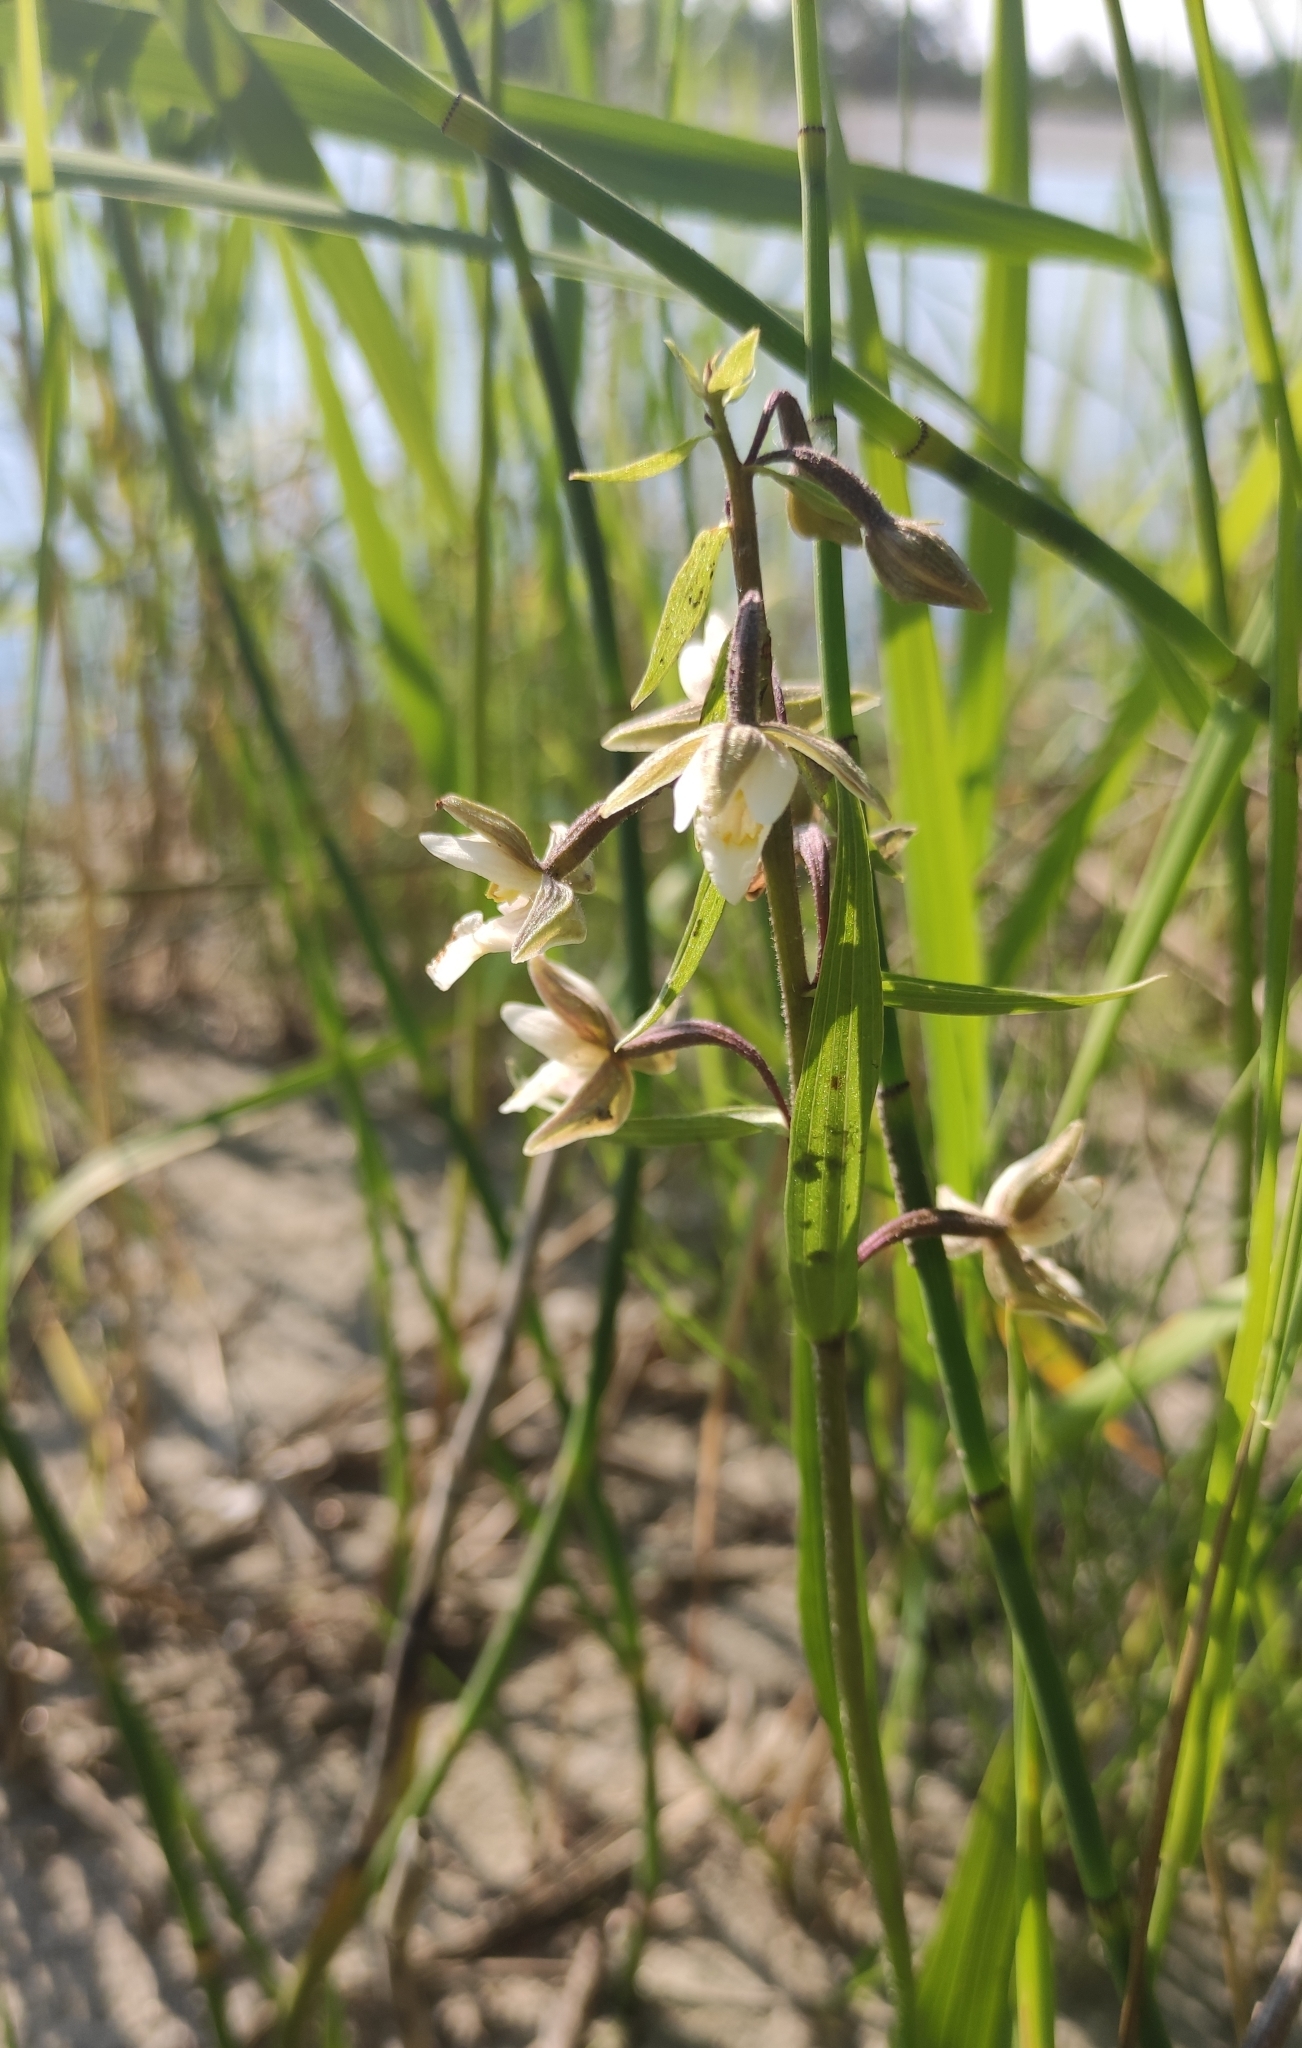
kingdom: Plantae
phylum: Tracheophyta
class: Liliopsida
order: Asparagales
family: Orchidaceae
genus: Epipactis
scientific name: Epipactis palustris
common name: Marsh helleborine
